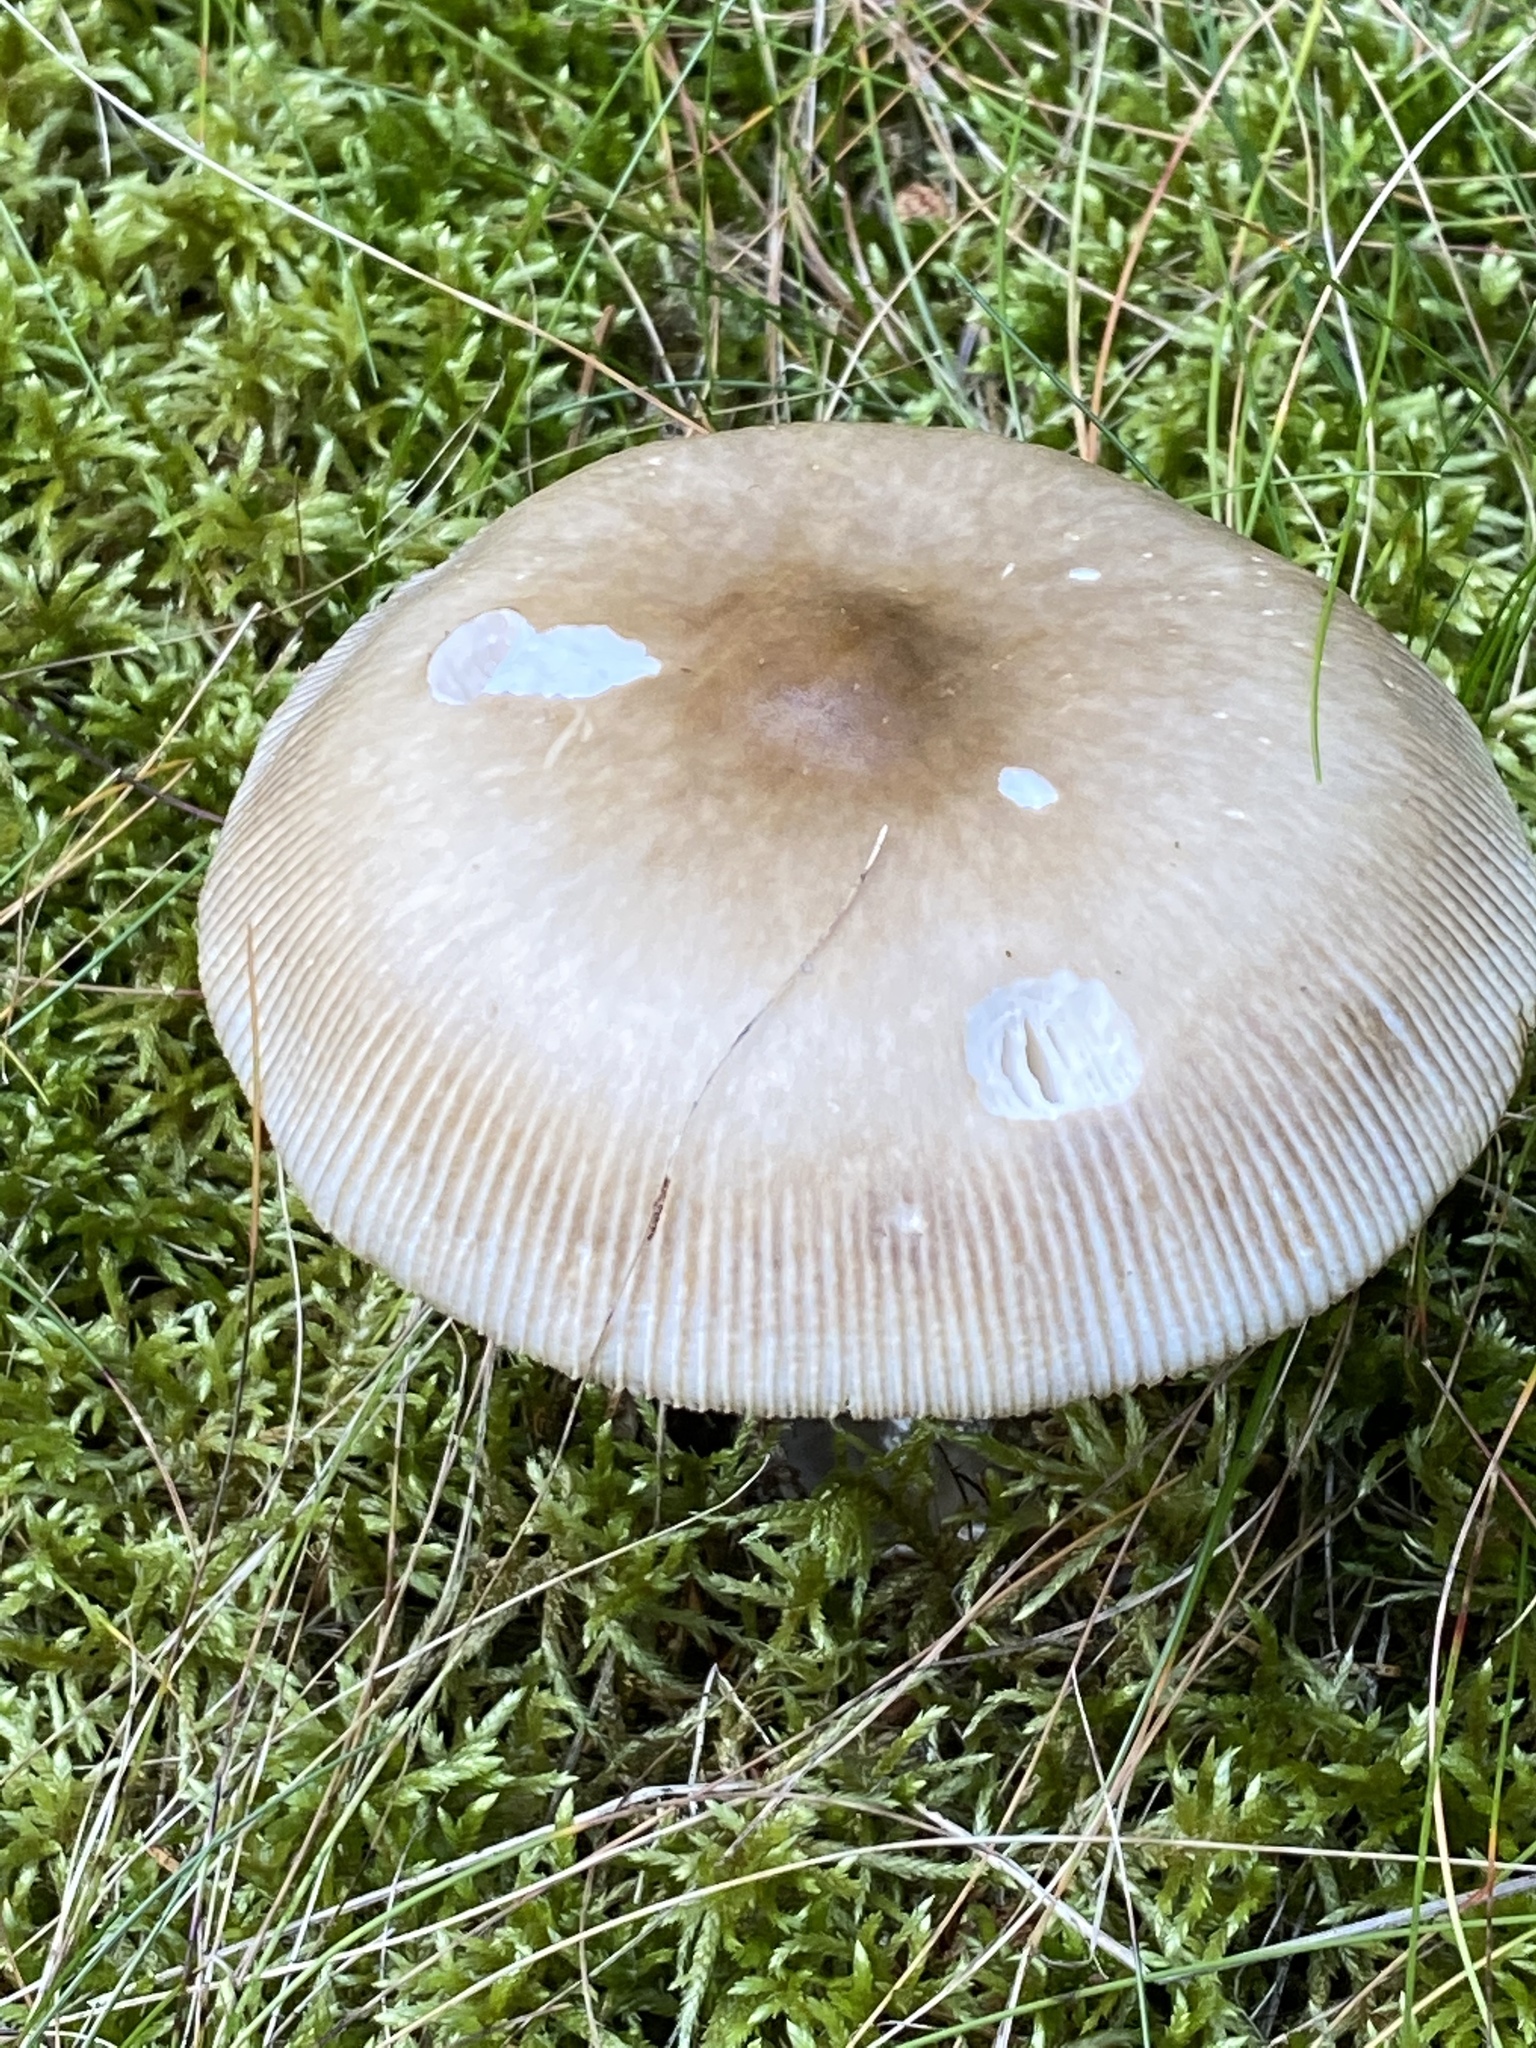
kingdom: Fungi
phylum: Basidiomycota
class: Agaricomycetes
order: Agaricales
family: Amanitaceae
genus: Amanita
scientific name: Amanita vaginata
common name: Grisette
